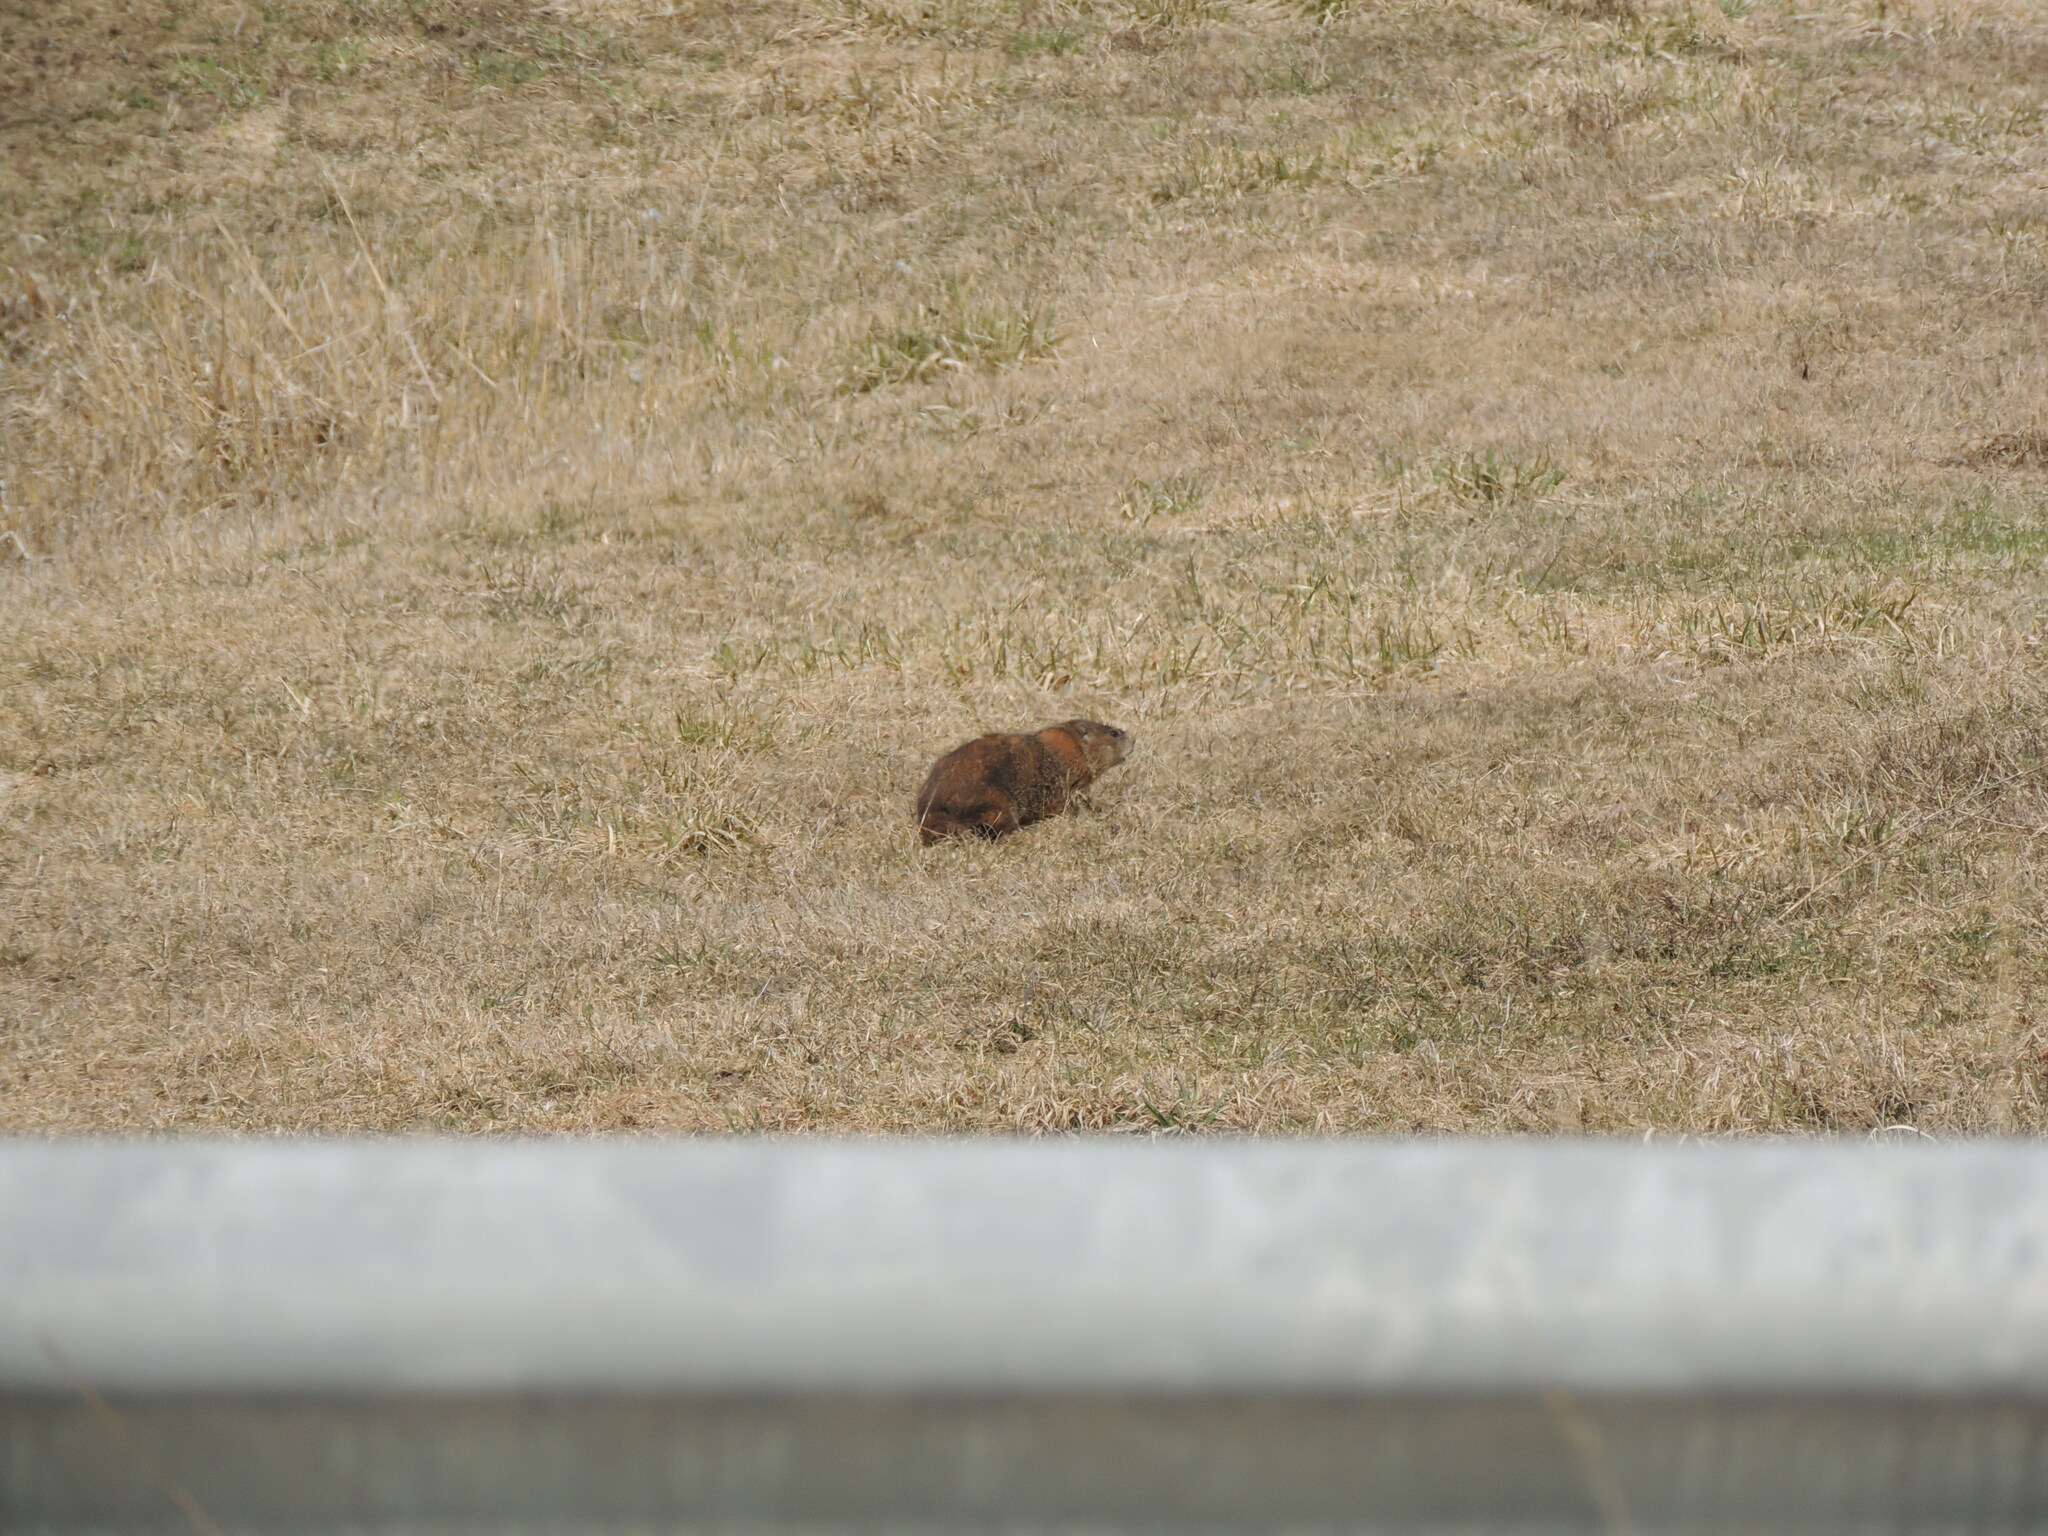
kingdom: Animalia
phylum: Chordata
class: Mammalia
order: Rodentia
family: Sciuridae
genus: Marmota
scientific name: Marmota monax
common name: Groundhog
